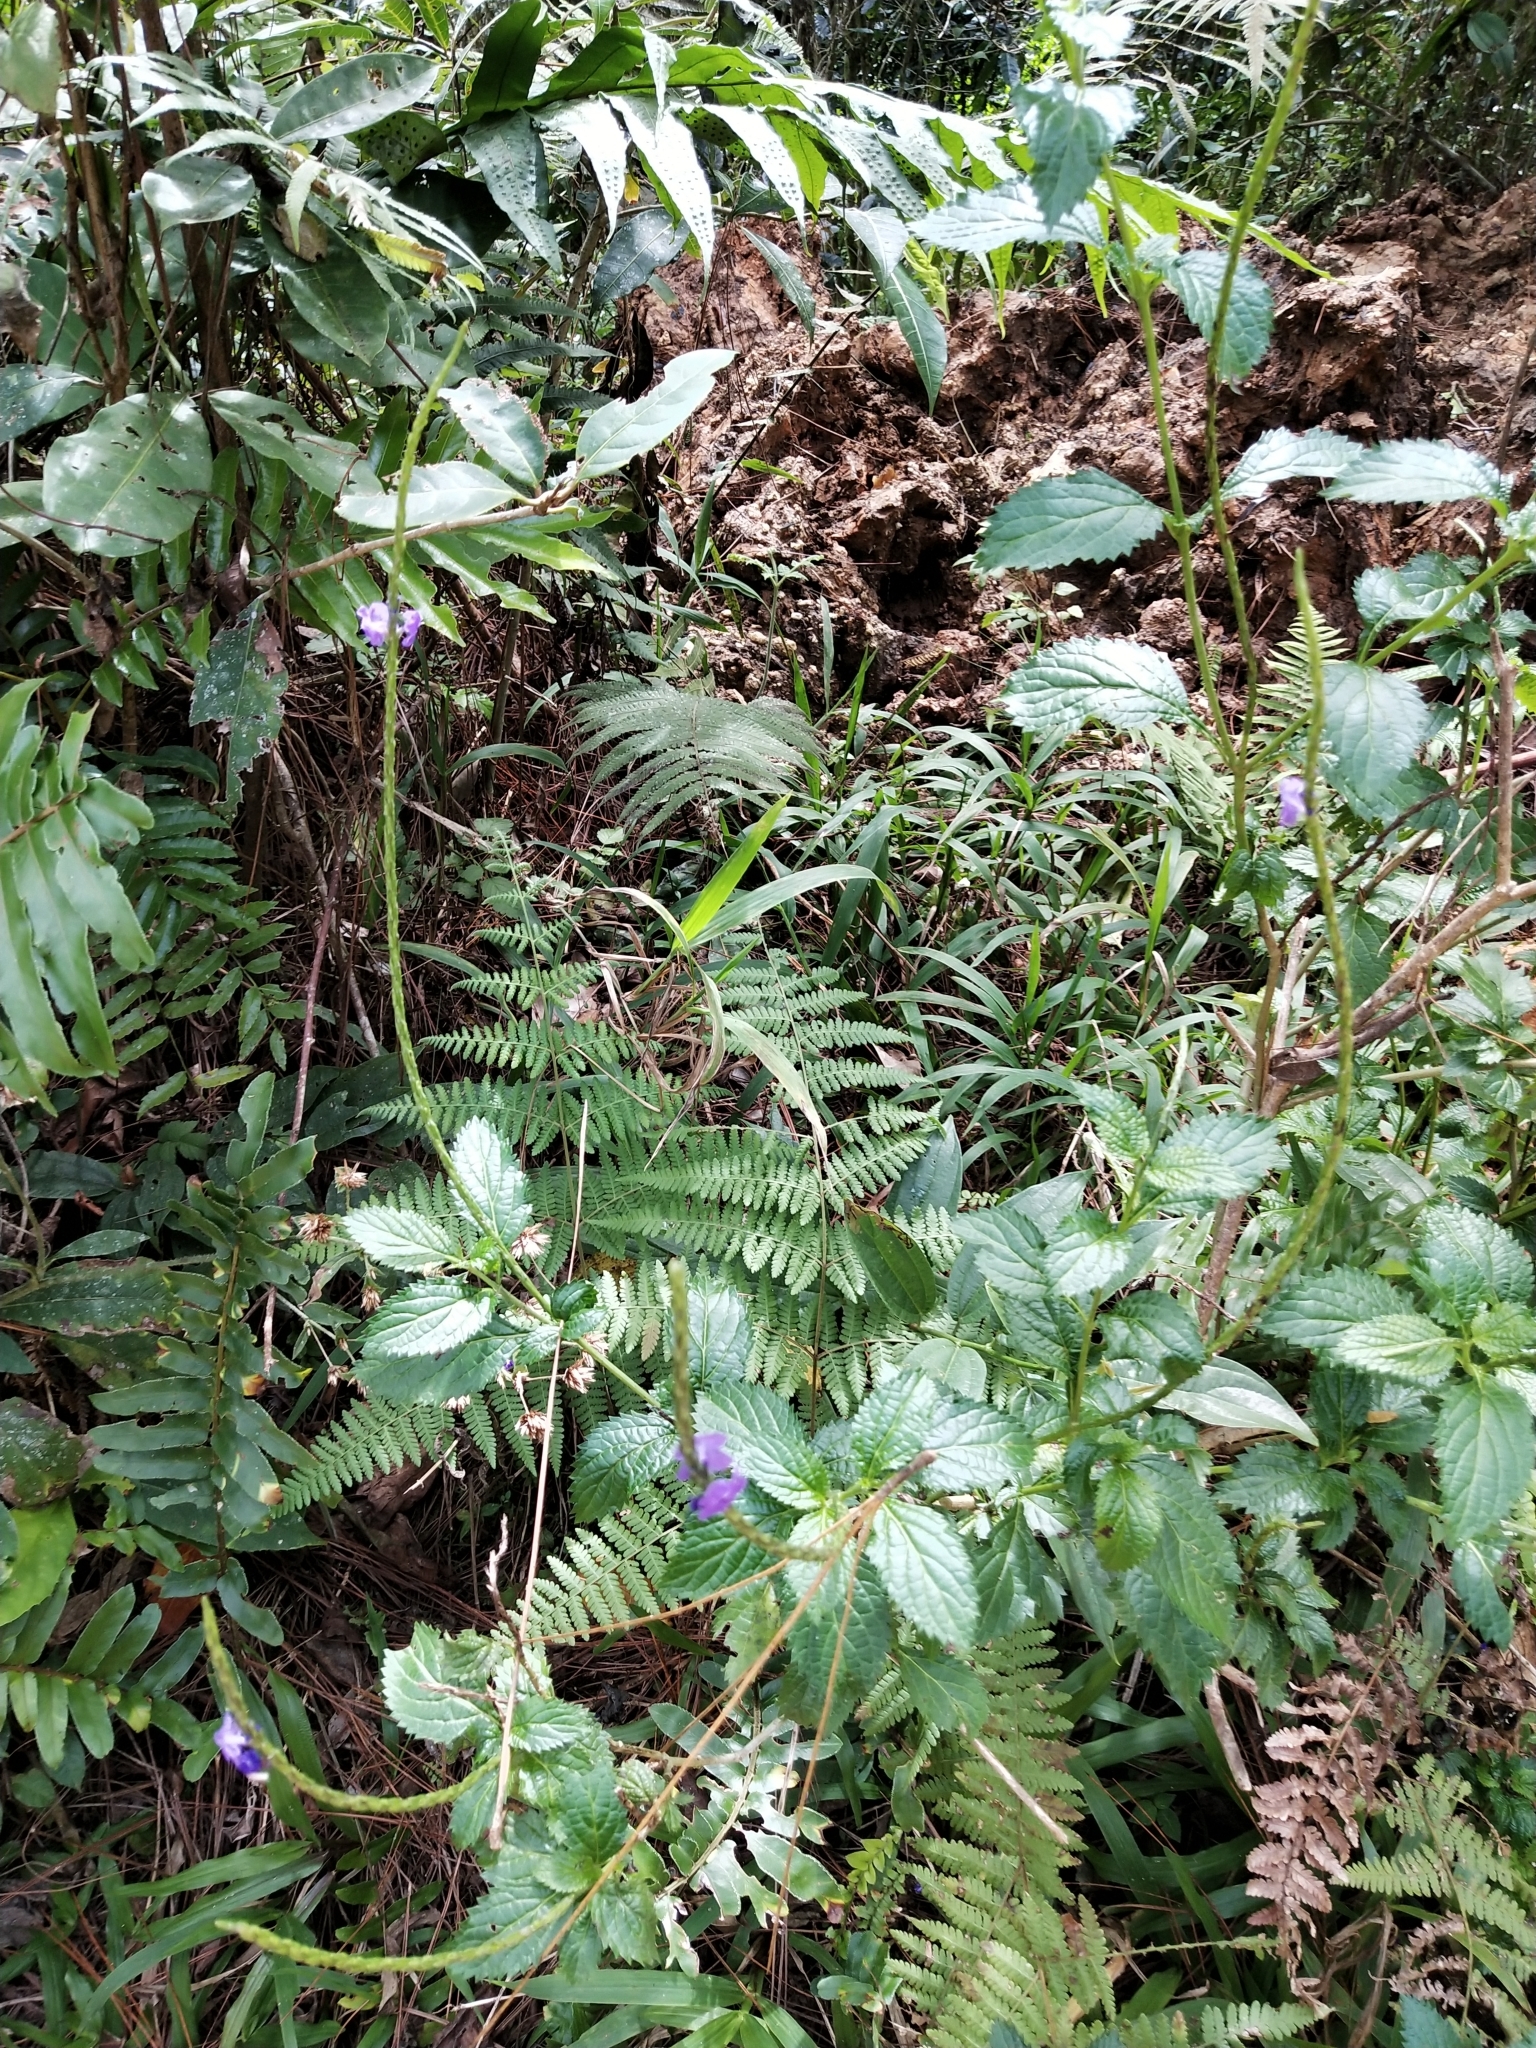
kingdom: Plantae
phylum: Tracheophyta
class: Magnoliopsida
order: Lamiales
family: Verbenaceae
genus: Stachytarpheta
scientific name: Stachytarpheta cayennensis
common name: Cayenne porterweed
